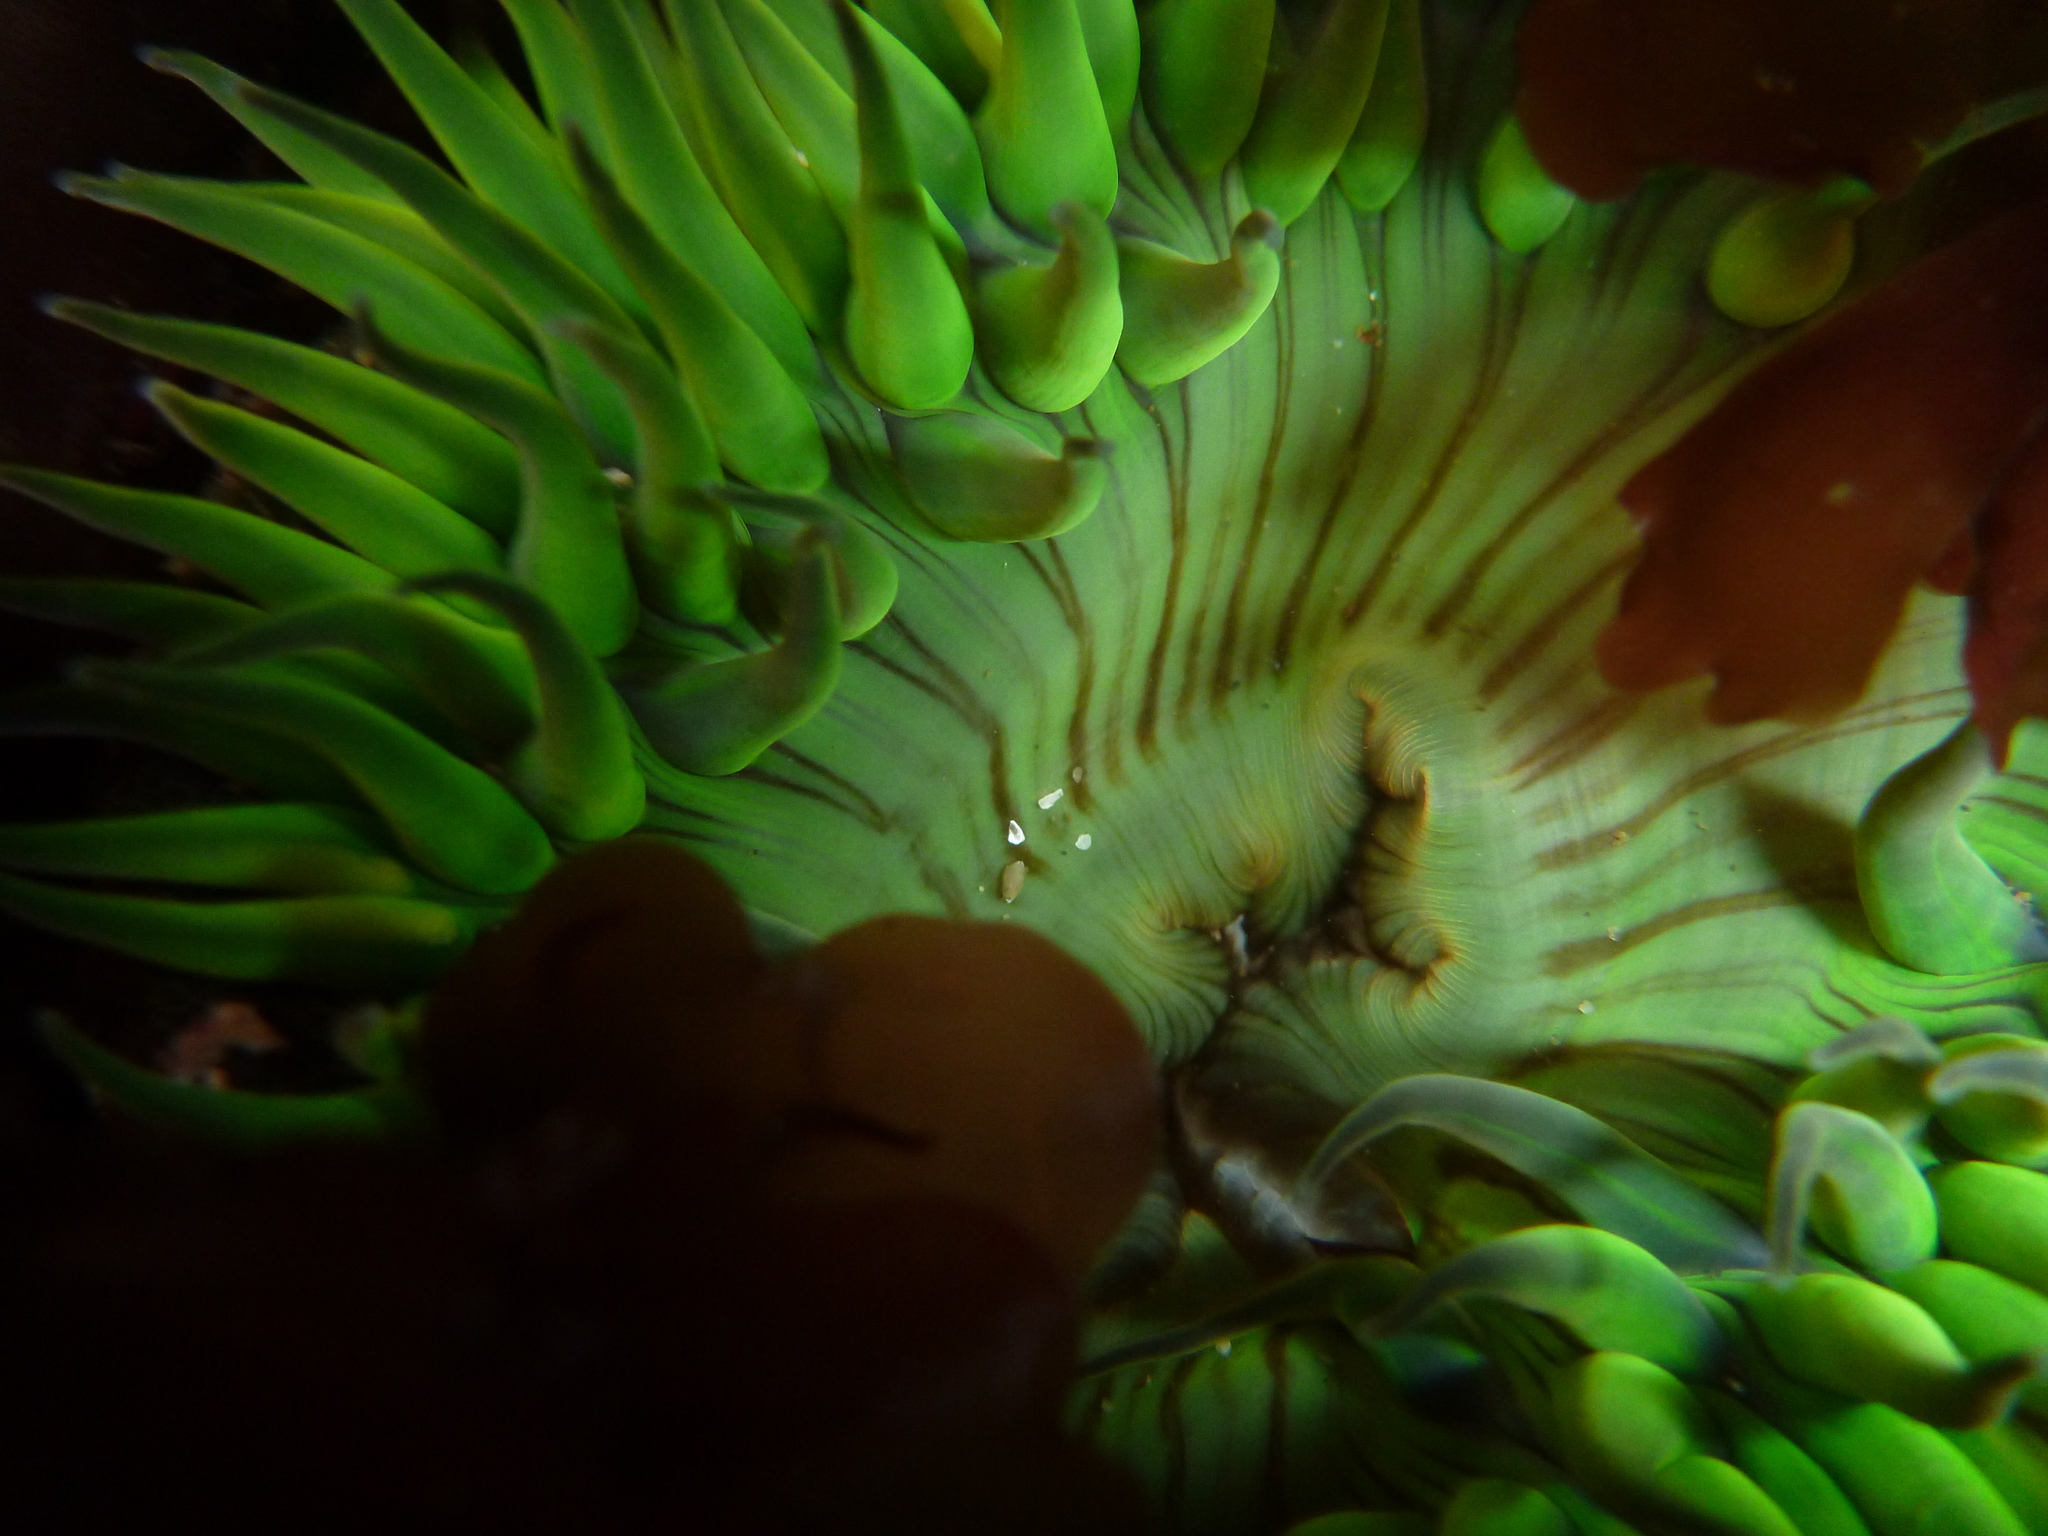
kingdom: Animalia
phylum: Cnidaria
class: Anthozoa
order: Actiniaria
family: Actiniidae
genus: Anthopleura
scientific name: Anthopleura sola
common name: Sun anemone
